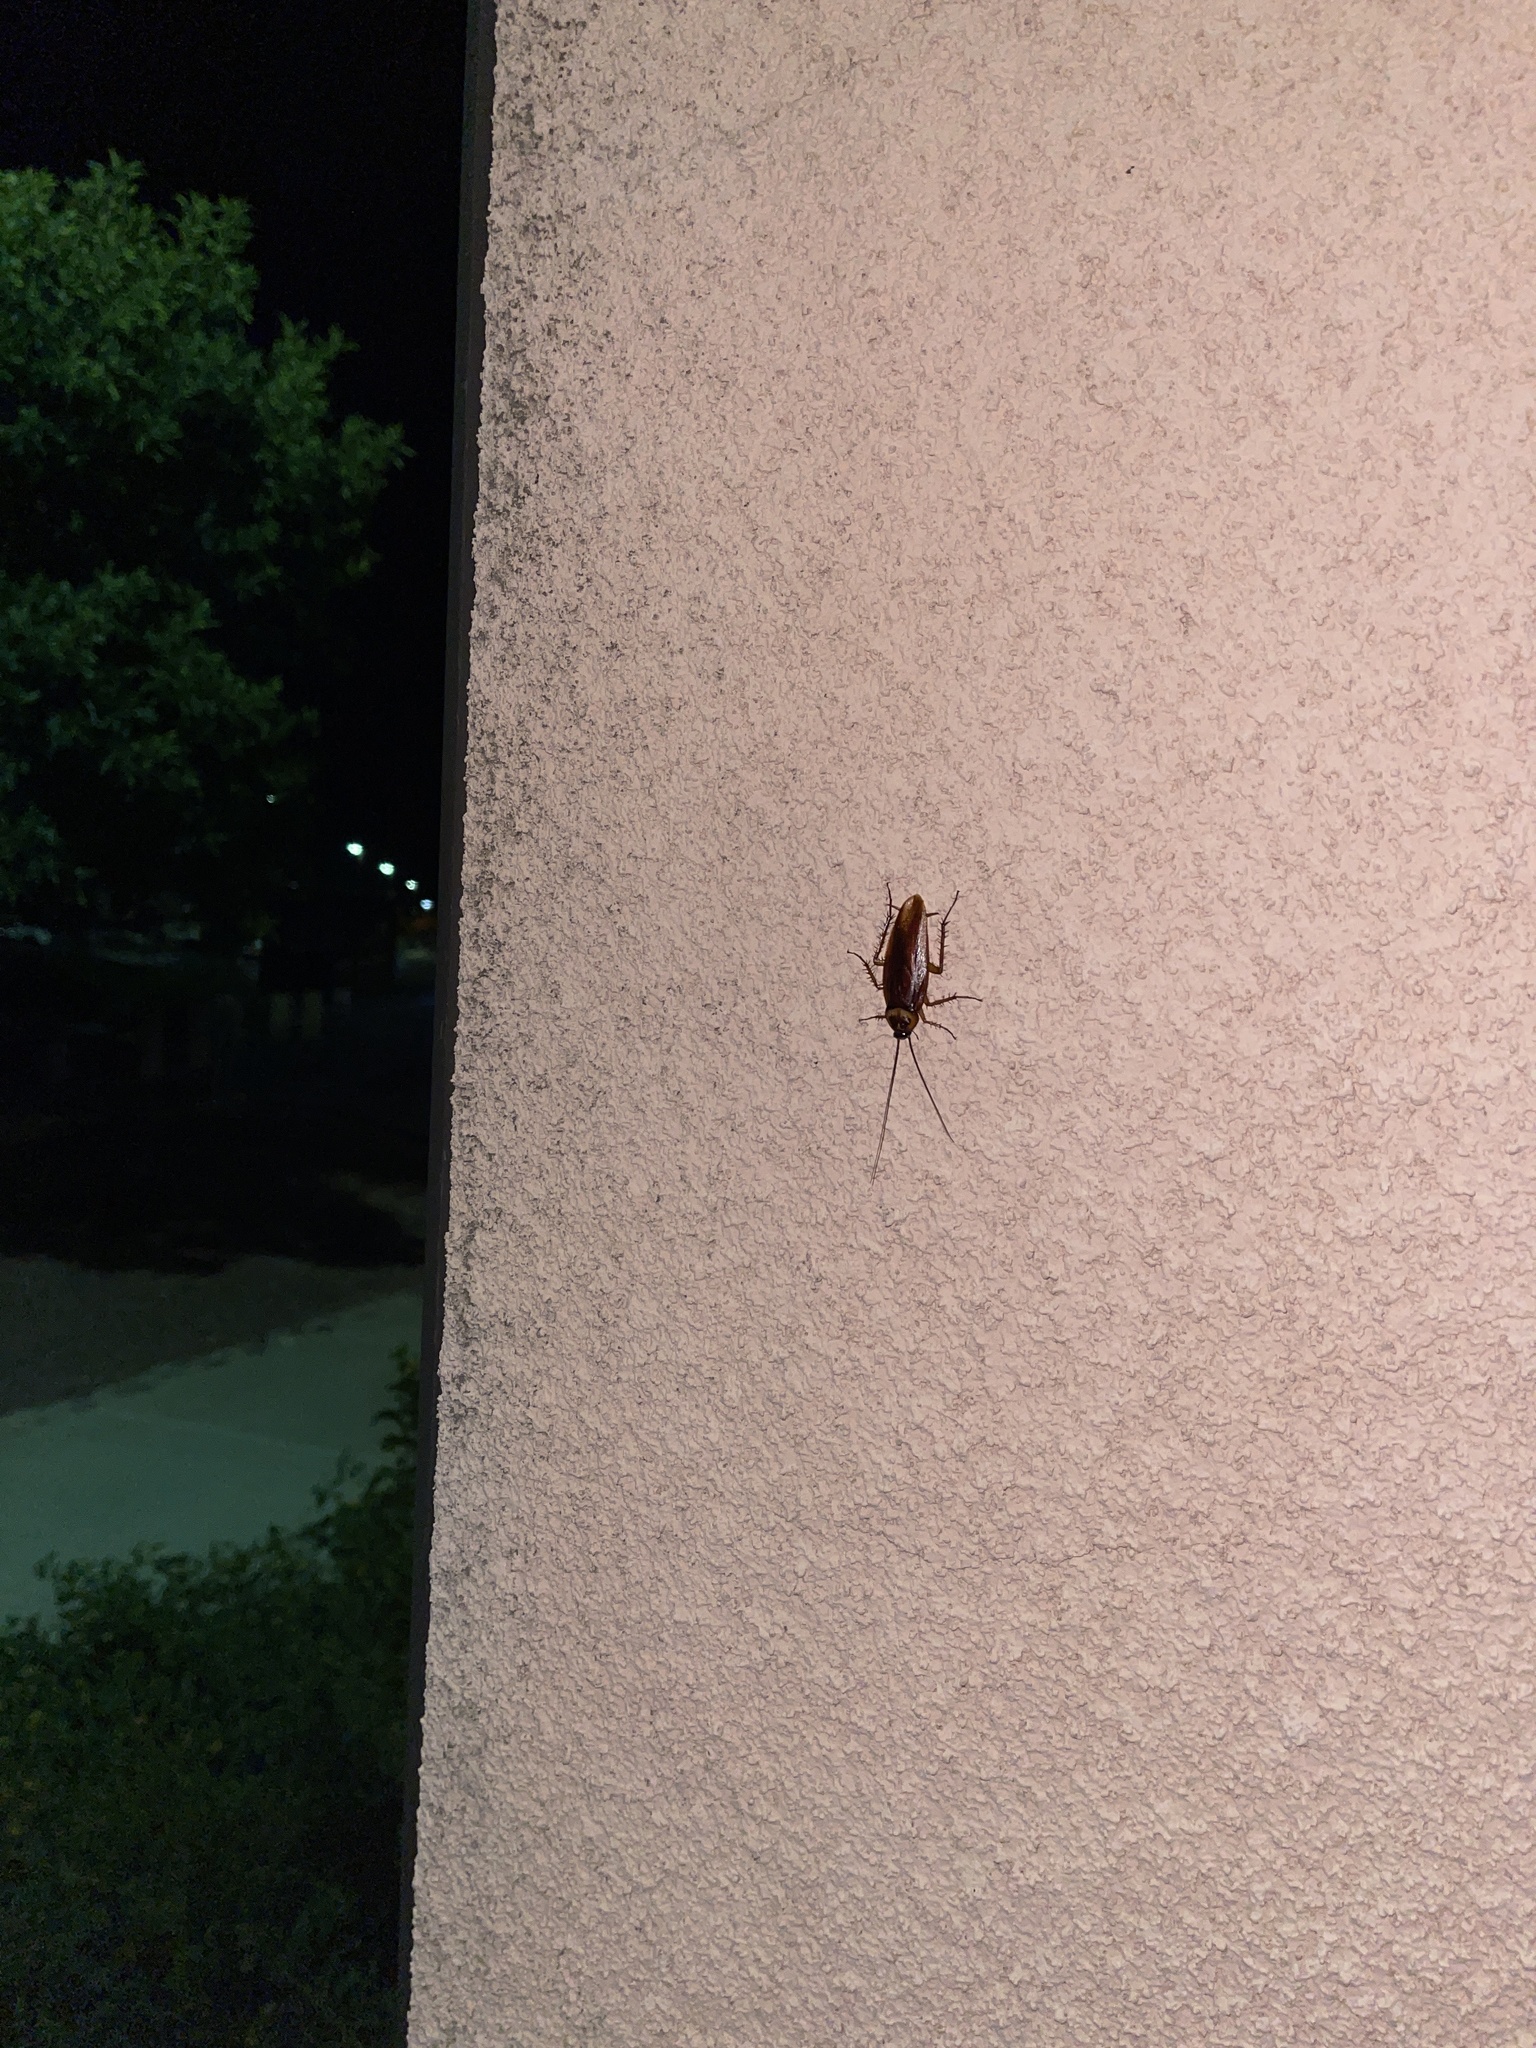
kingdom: Animalia
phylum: Arthropoda
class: Insecta
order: Blattodea
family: Blattidae
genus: Periplaneta
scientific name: Periplaneta americana
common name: American cockroach
